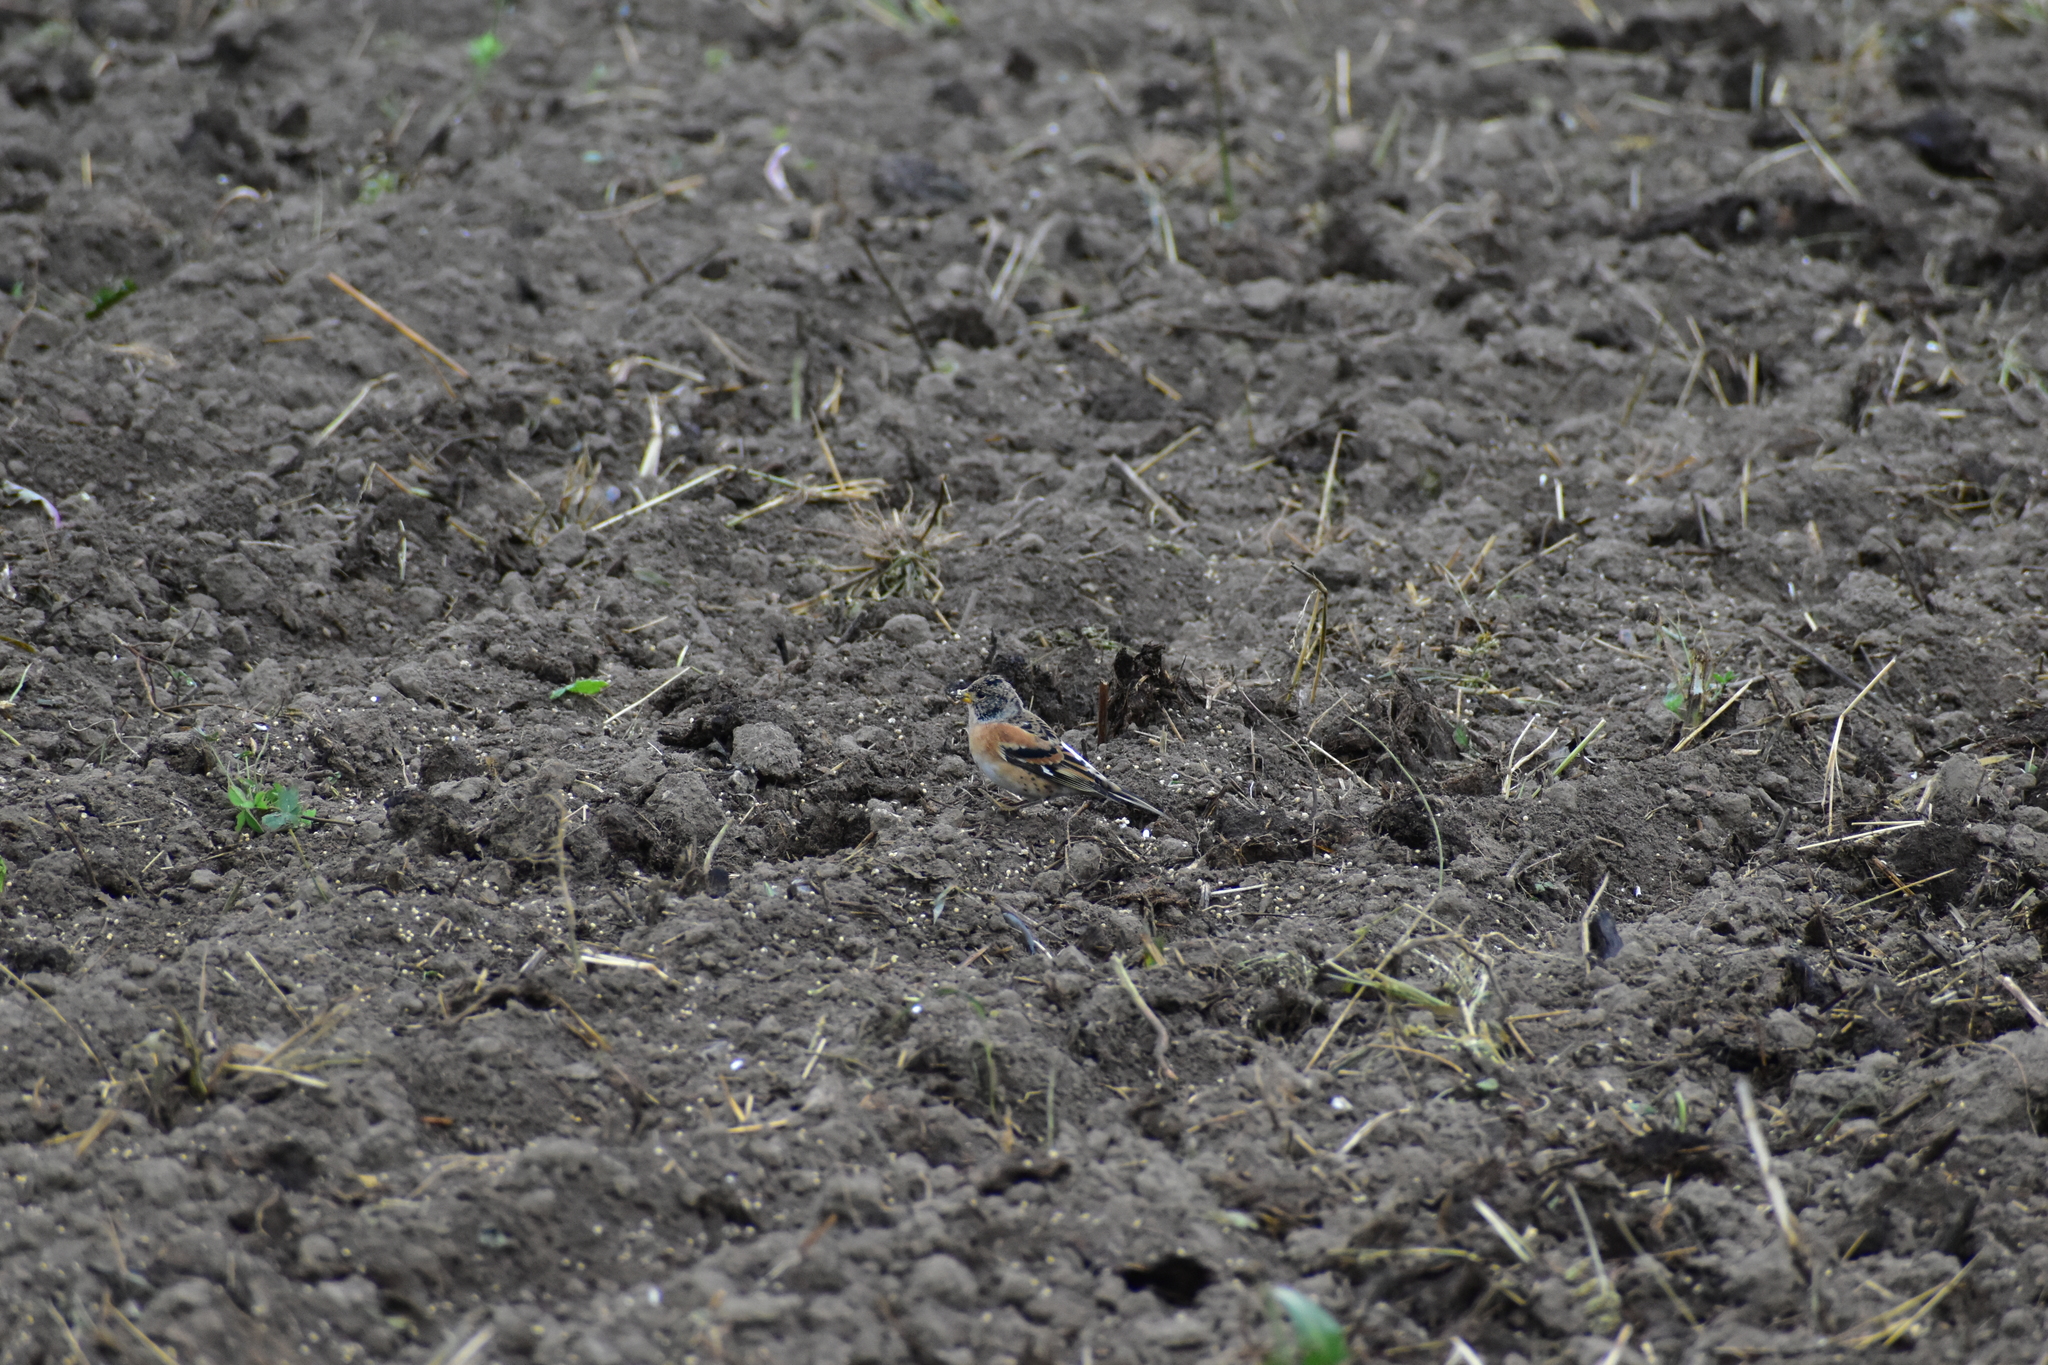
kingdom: Animalia
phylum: Chordata
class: Aves
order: Passeriformes
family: Fringillidae
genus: Fringilla
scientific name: Fringilla montifringilla
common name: Brambling
